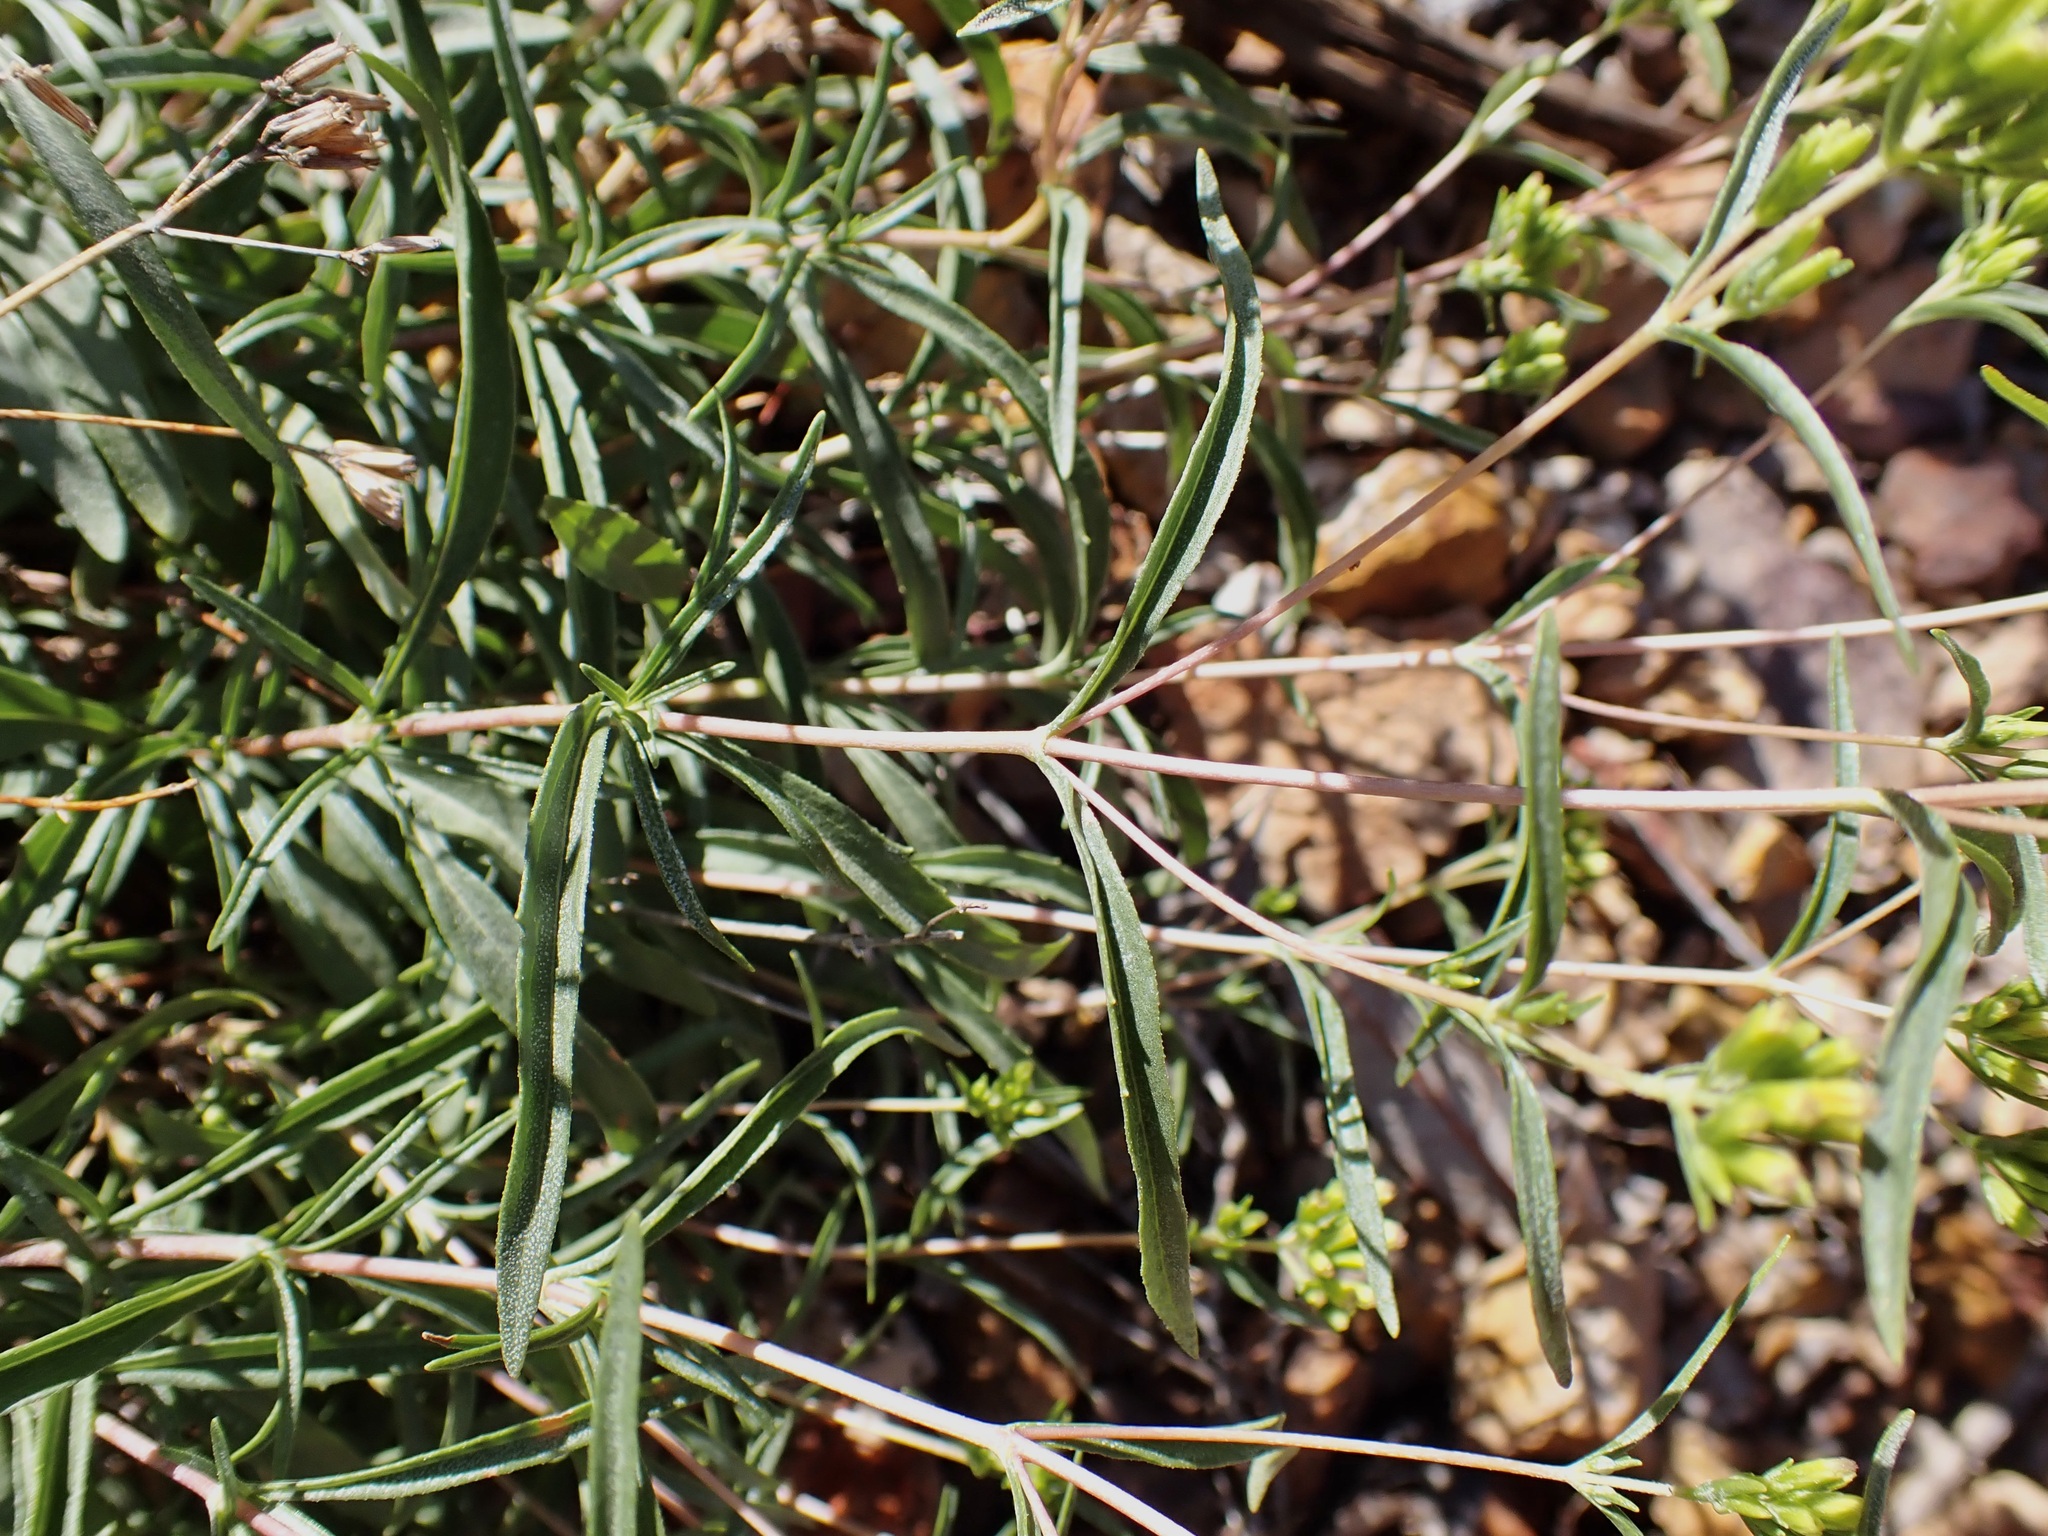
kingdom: Plantae
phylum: Tracheophyta
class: Magnoliopsida
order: Asterales
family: Asteraceae
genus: Stevia
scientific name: Stevia salicifolia
